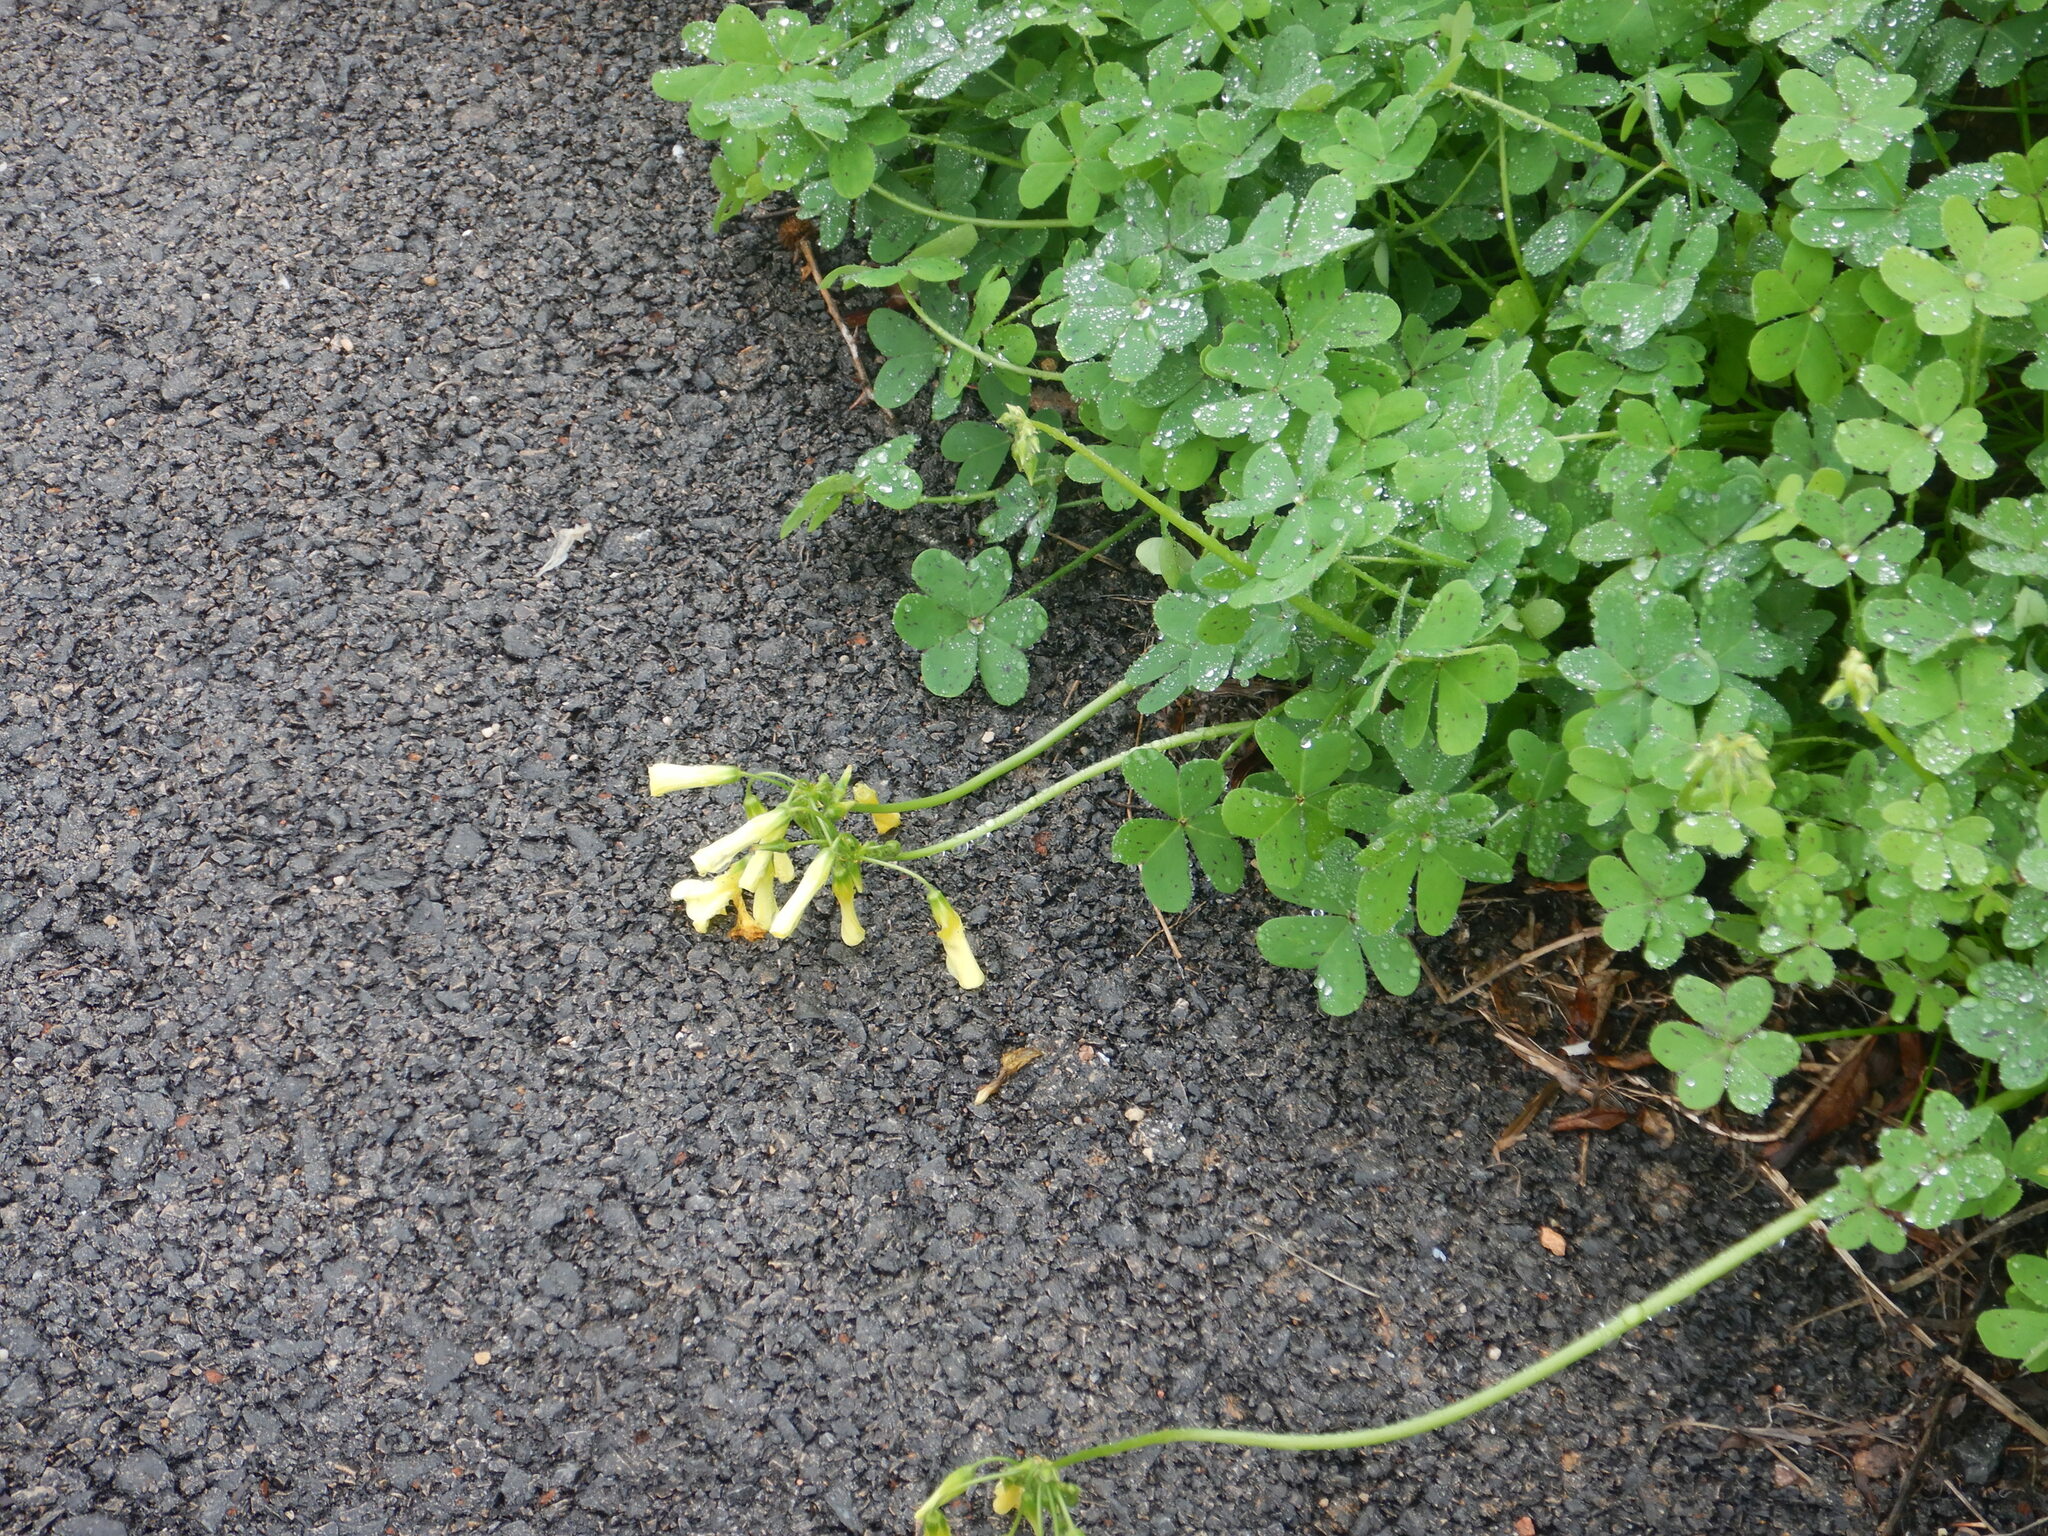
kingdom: Plantae
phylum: Tracheophyta
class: Magnoliopsida
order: Oxalidales
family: Oxalidaceae
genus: Oxalis
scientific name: Oxalis pes-caprae
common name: Bermuda-buttercup
